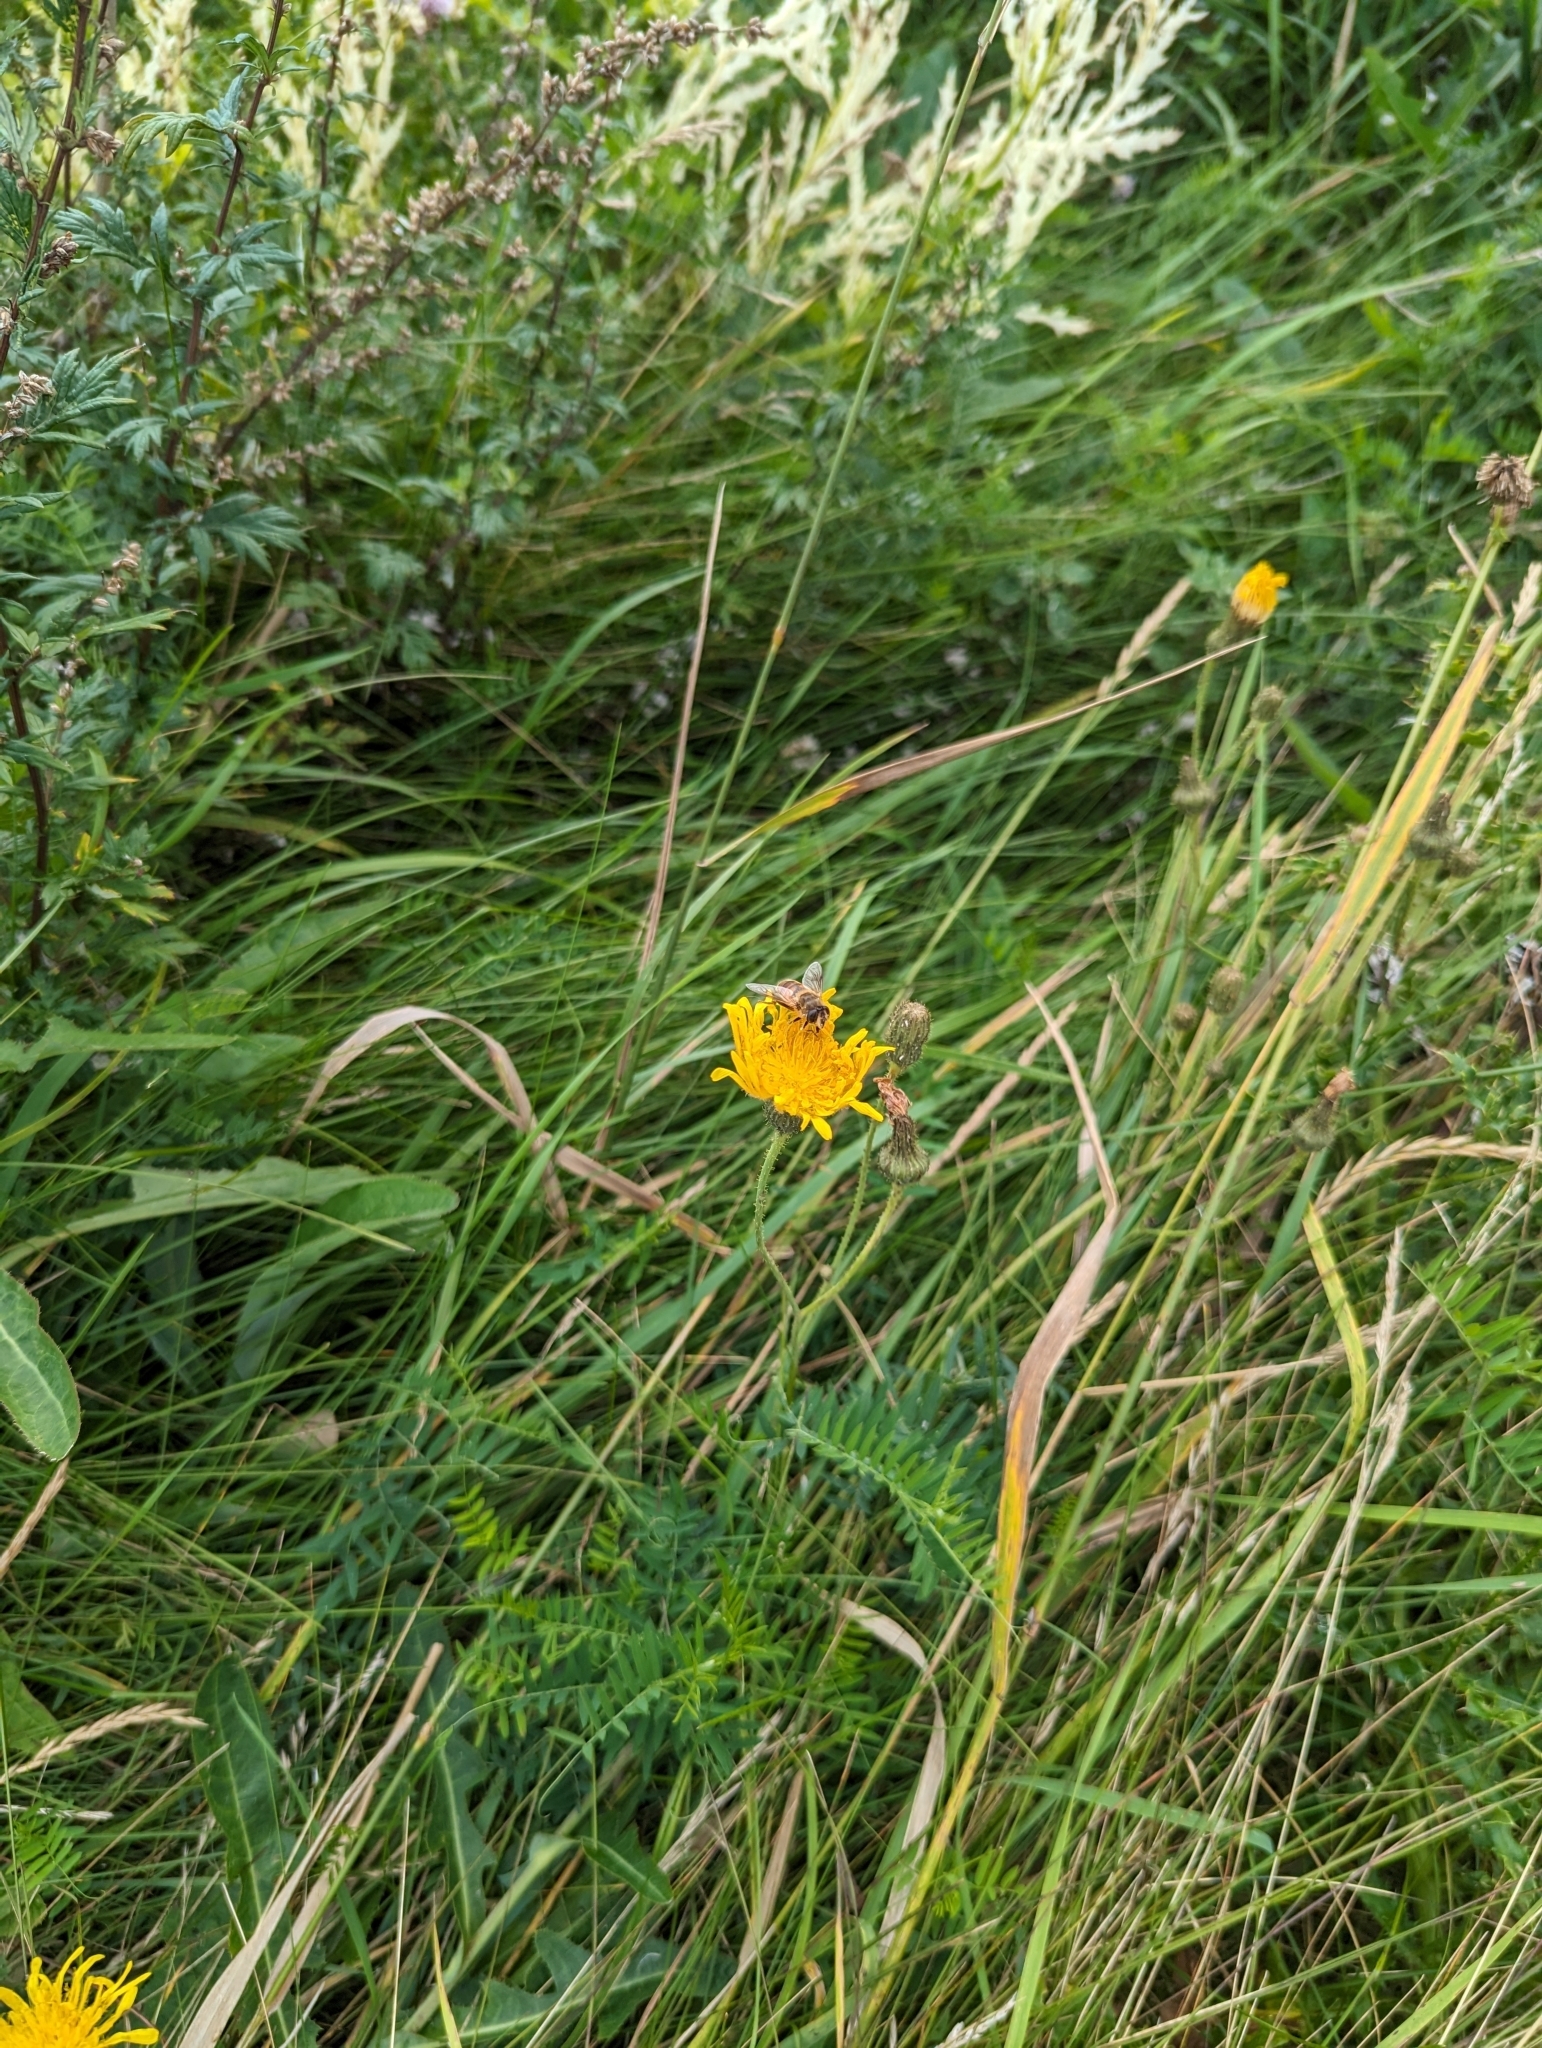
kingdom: Animalia
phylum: Arthropoda
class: Insecta
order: Diptera
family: Syrphidae
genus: Eristalis
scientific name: Eristalis tenax
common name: Drone fly
